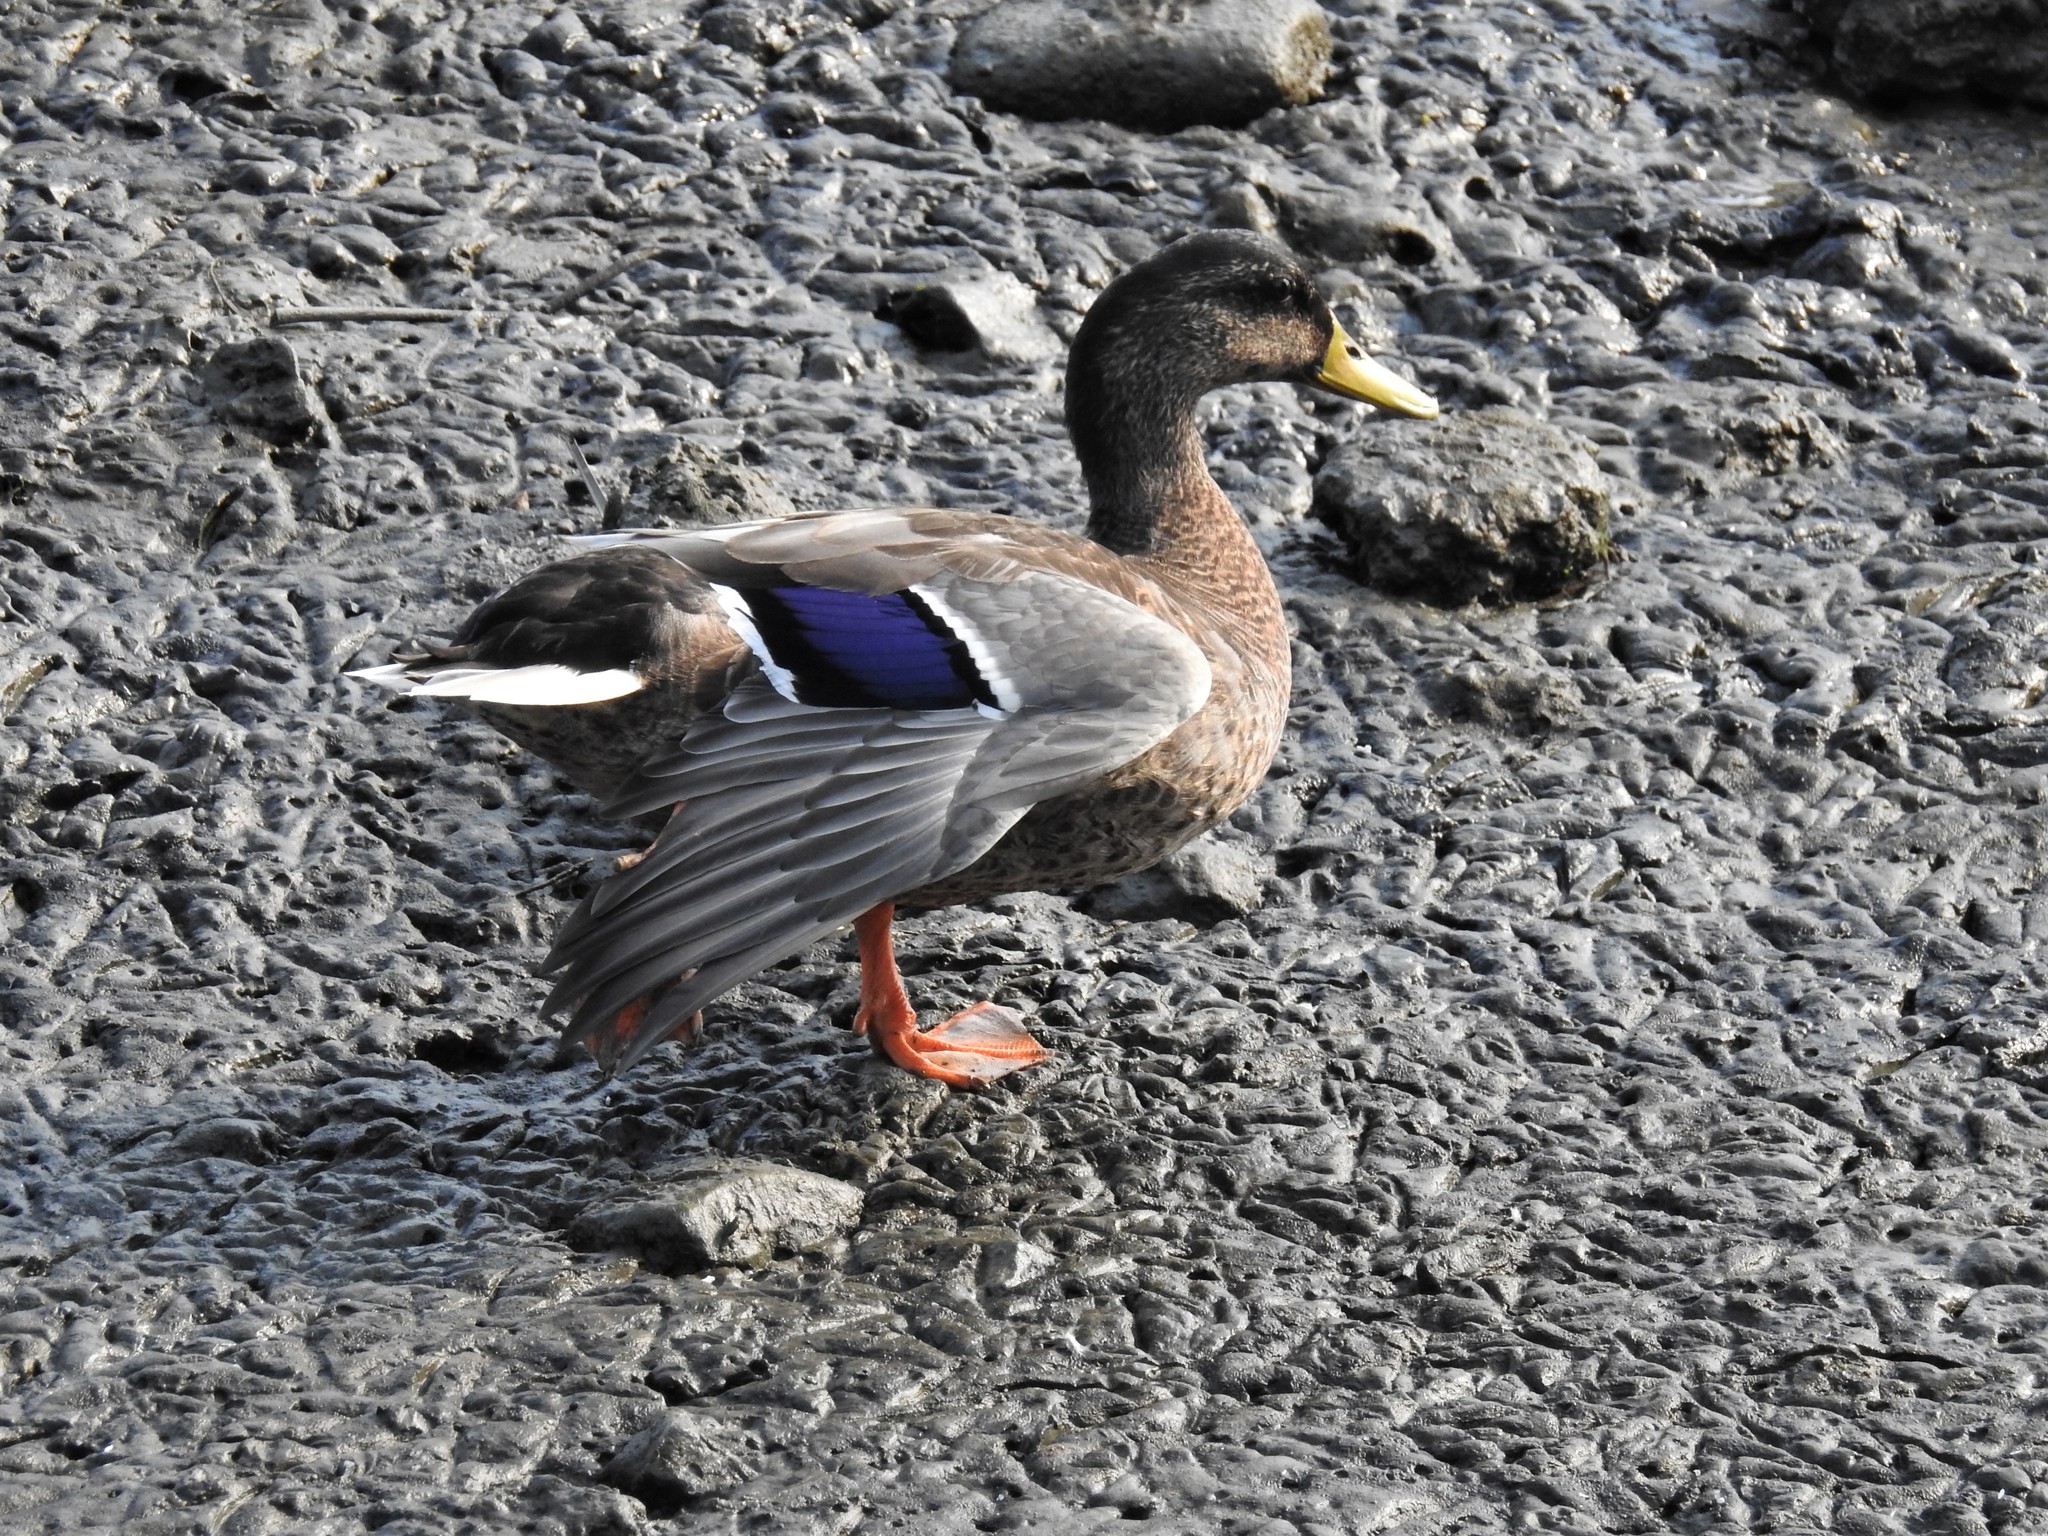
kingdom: Animalia
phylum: Chordata
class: Aves
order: Anseriformes
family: Anatidae
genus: Anas
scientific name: Anas platyrhynchos
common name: Mallard
